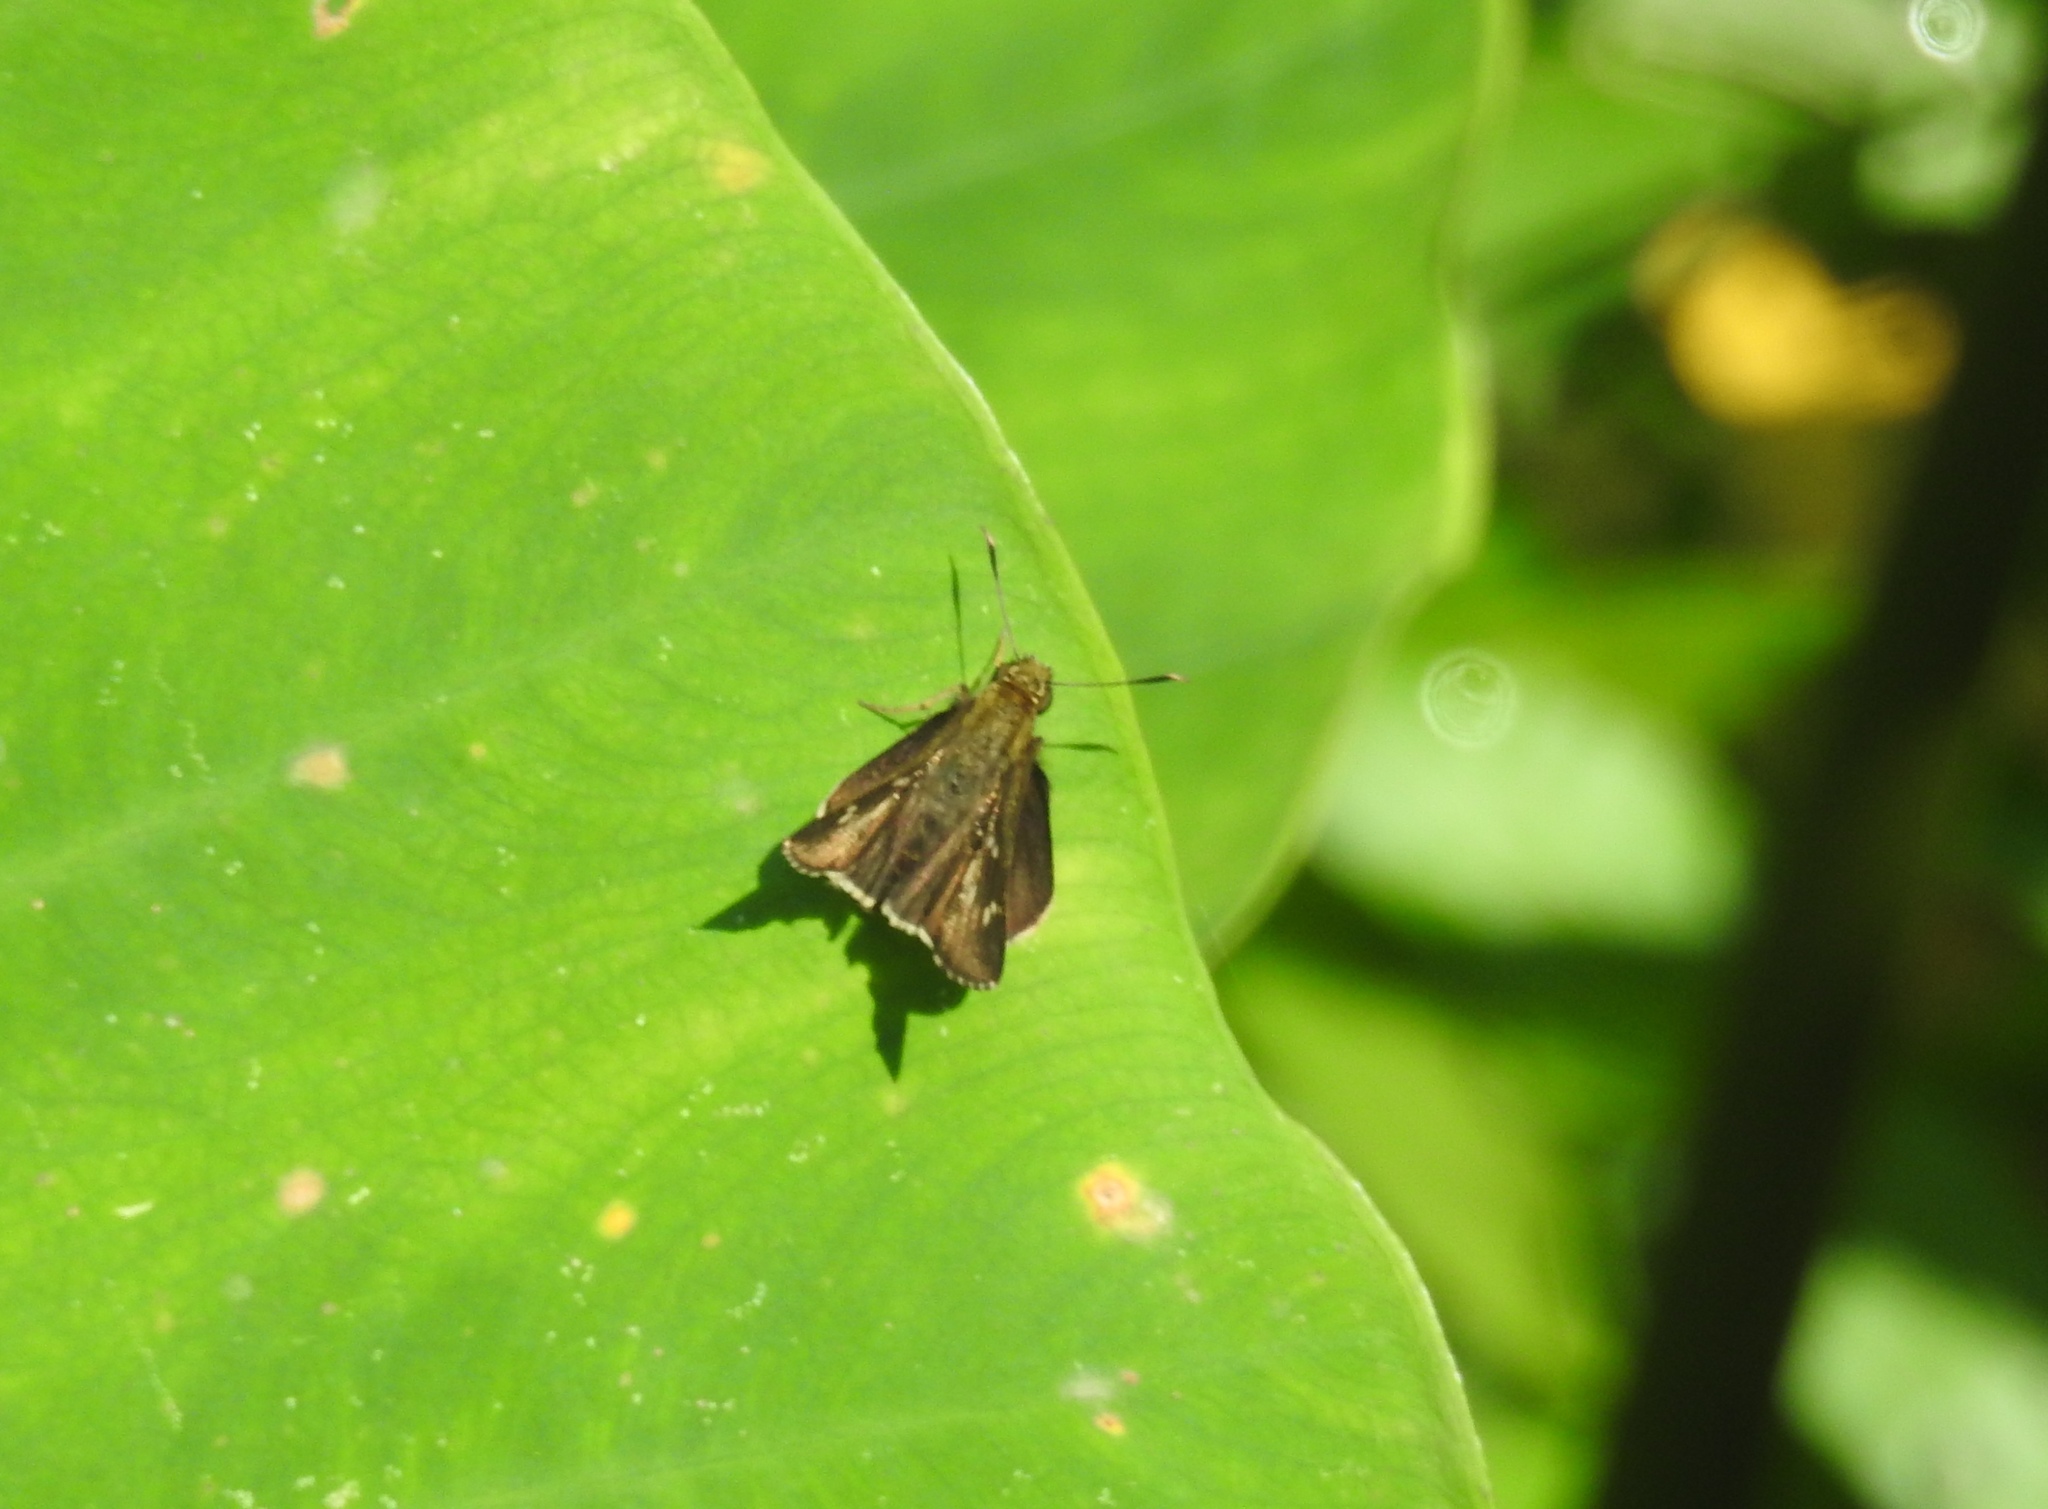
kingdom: Animalia
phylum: Arthropoda
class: Insecta
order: Lepidoptera
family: Hesperiidae
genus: Halpe
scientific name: Halpe porus
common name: Moore's ace
